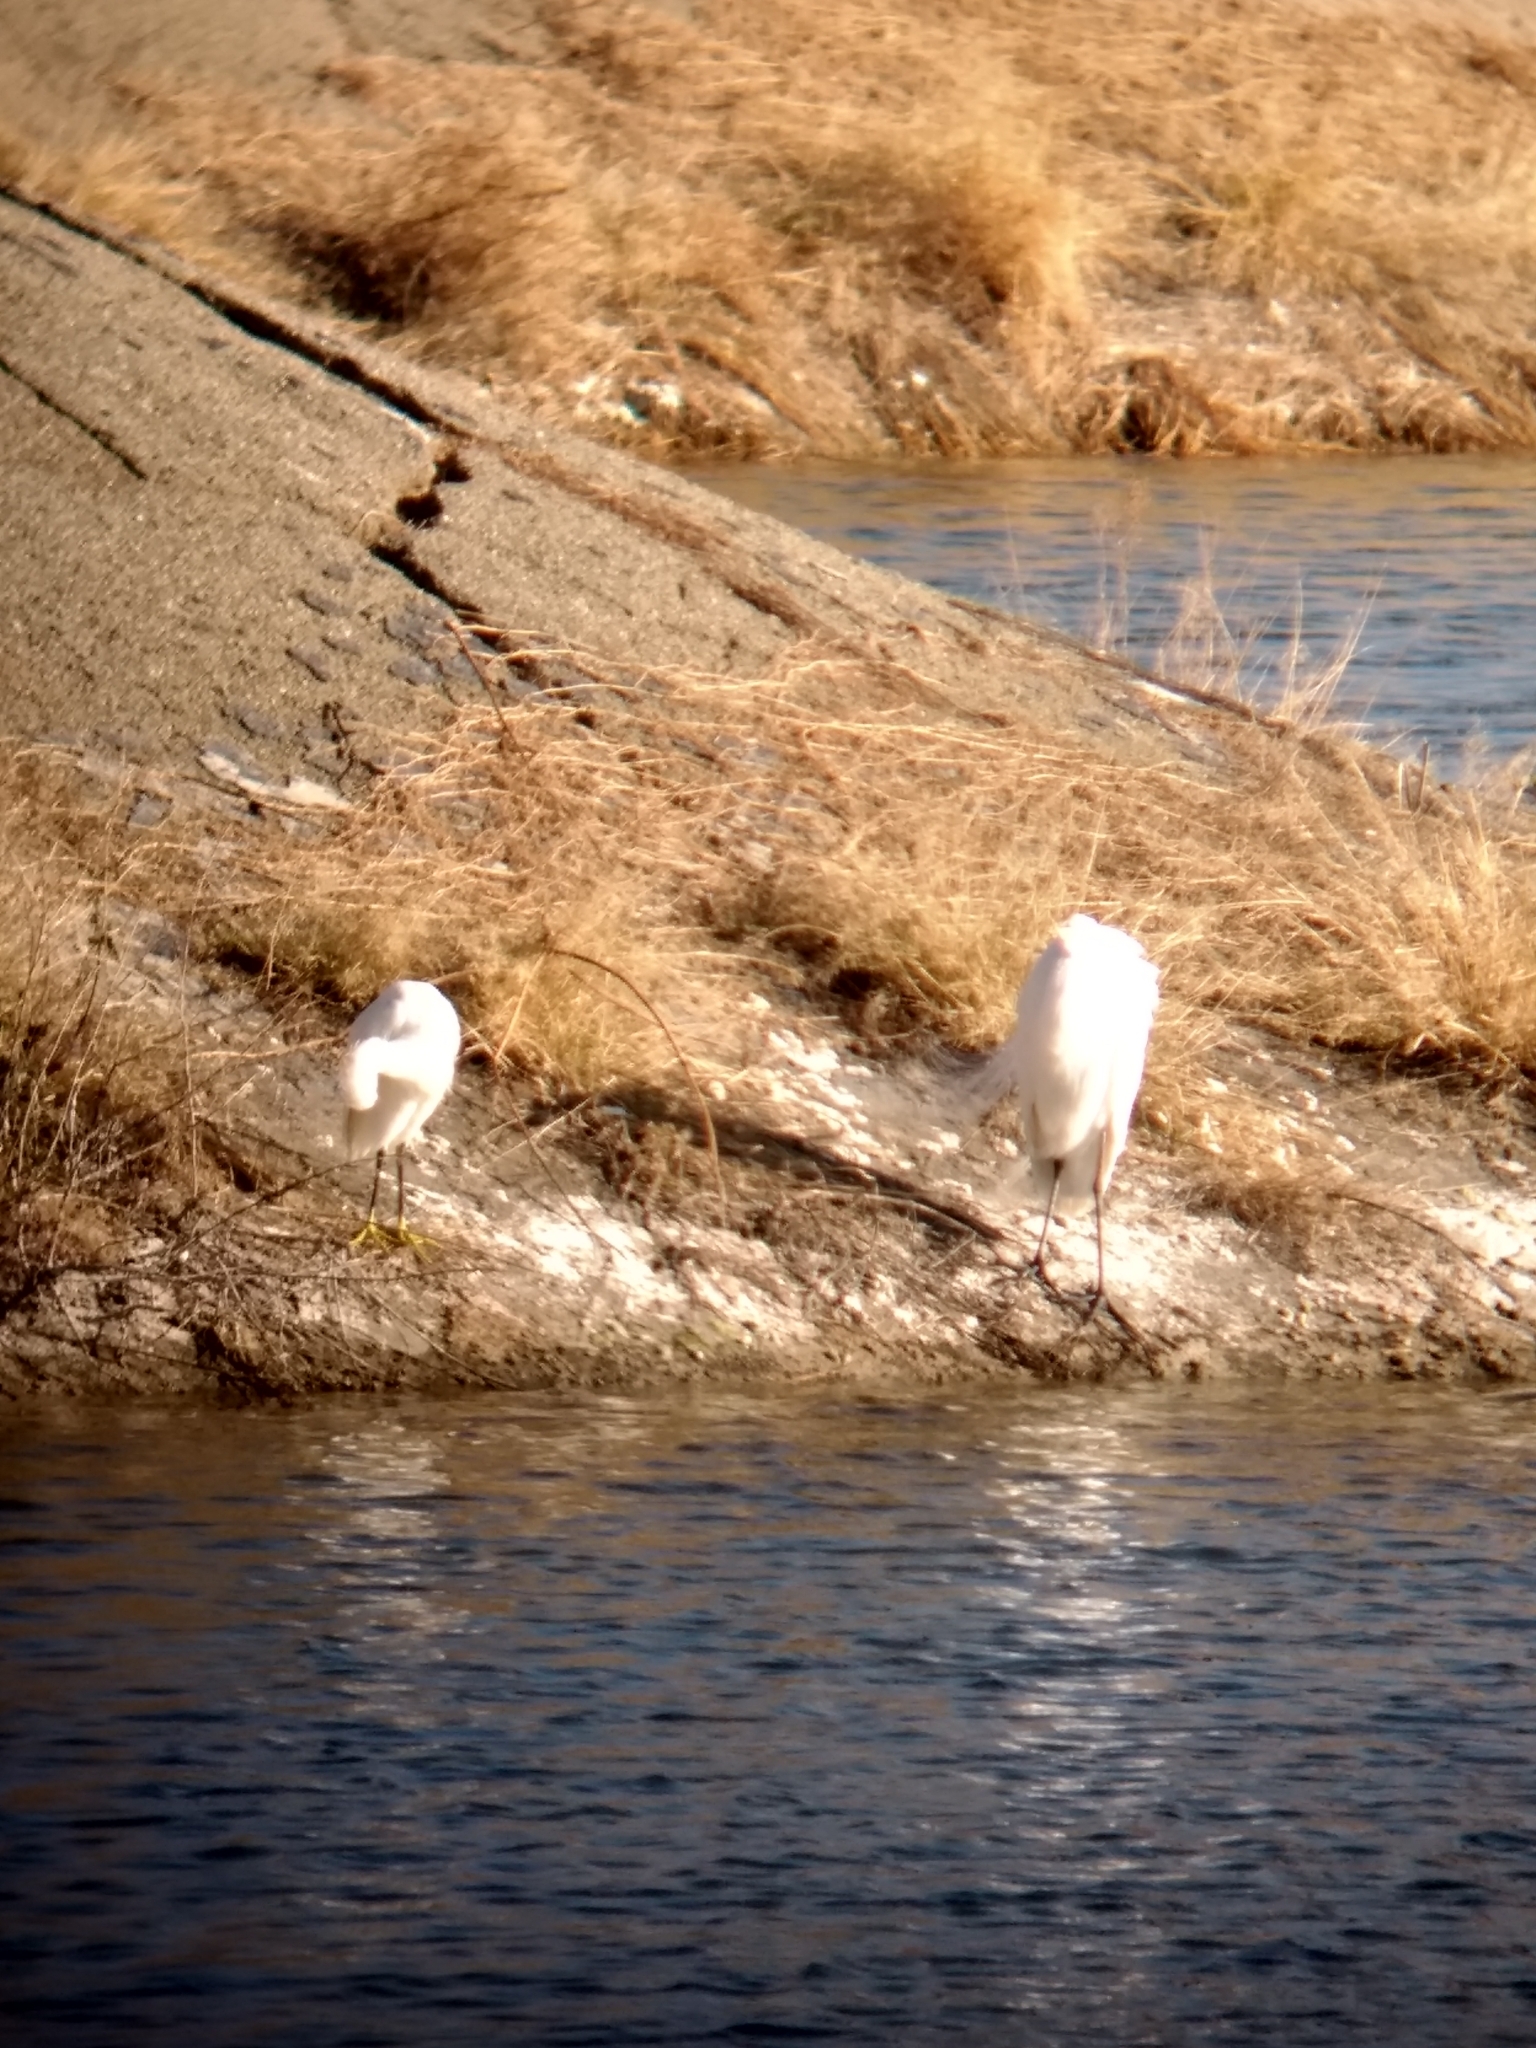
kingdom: Animalia
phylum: Chordata
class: Aves
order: Pelecaniformes
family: Ardeidae
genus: Ardea
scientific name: Ardea alba
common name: Great egret
